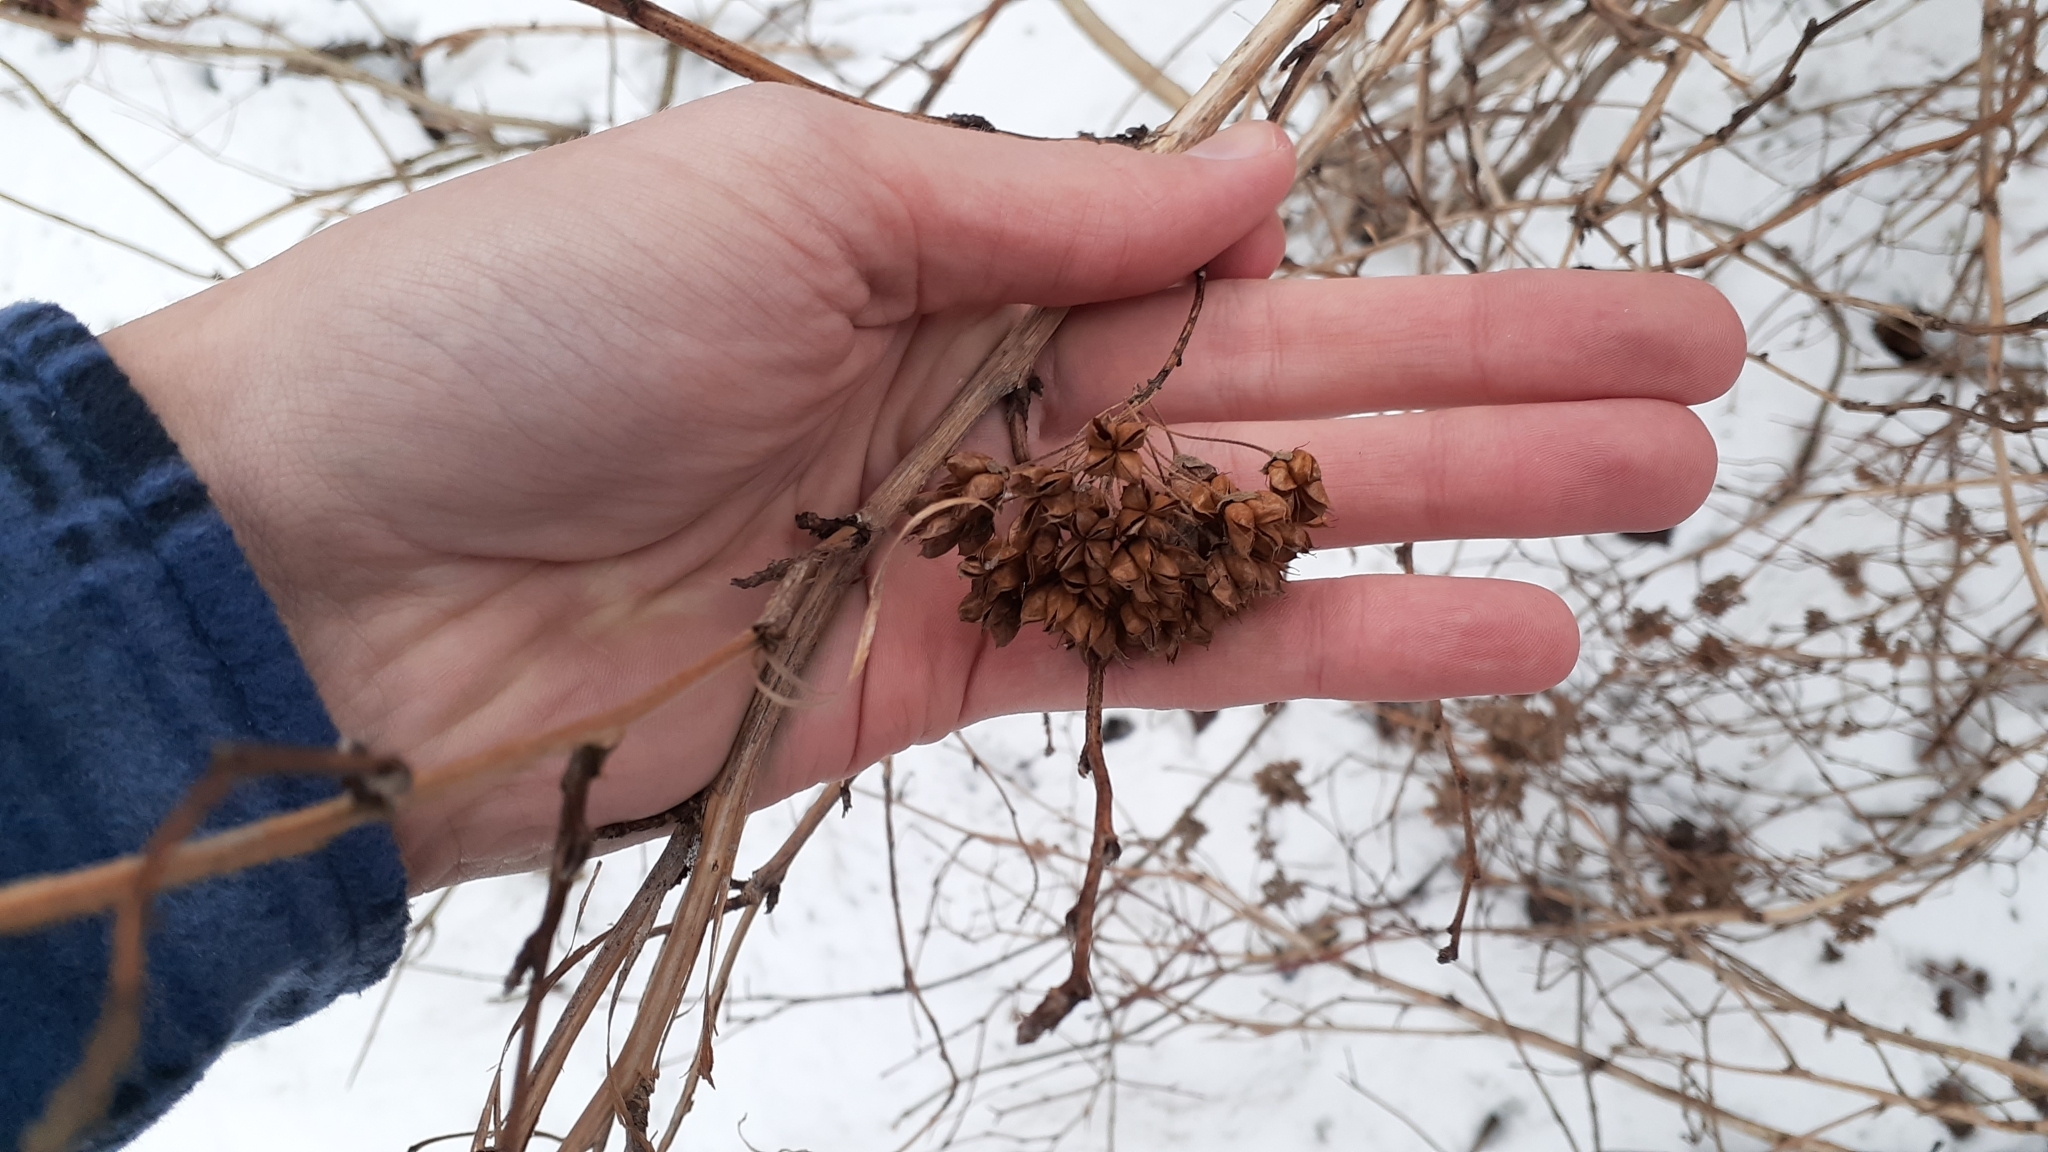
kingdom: Plantae
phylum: Tracheophyta
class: Magnoliopsida
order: Rosales
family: Rosaceae
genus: Physocarpus
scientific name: Physocarpus opulifolius
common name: Ninebark
